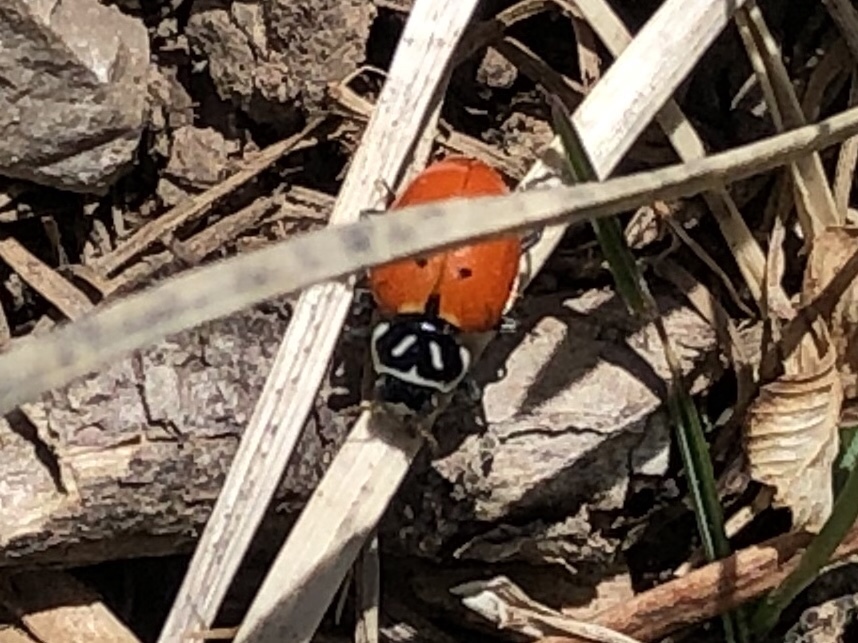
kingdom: Animalia
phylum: Arthropoda
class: Insecta
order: Coleoptera
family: Coccinellidae
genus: Hippodamia
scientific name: Hippodamia convergens
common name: Convergent lady beetle
